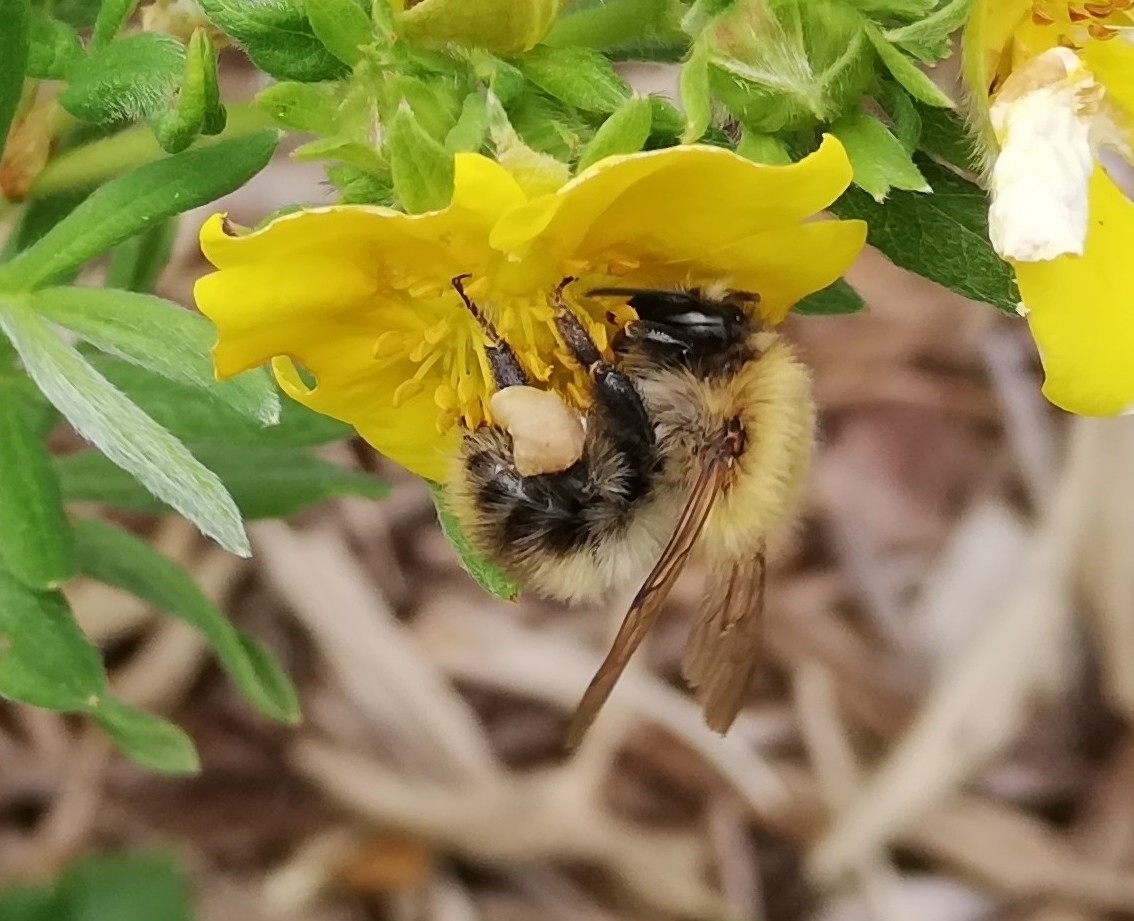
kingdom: Animalia
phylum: Arthropoda
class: Insecta
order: Hymenoptera
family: Apidae
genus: Bombus
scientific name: Bombus pascuorum
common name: Common carder bee
